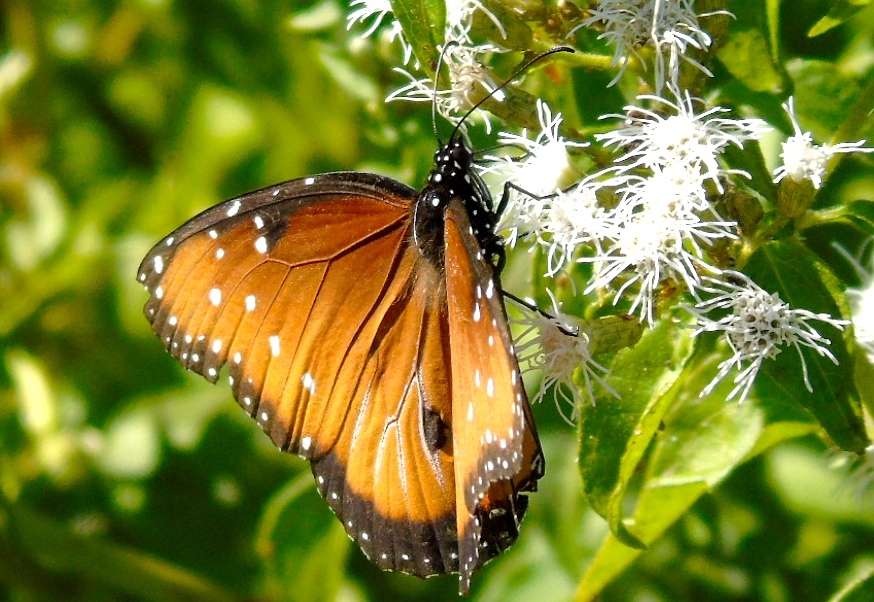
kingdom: Animalia
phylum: Arthropoda
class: Insecta
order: Lepidoptera
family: Nymphalidae
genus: Danaus
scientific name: Danaus gilippus
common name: Queen
